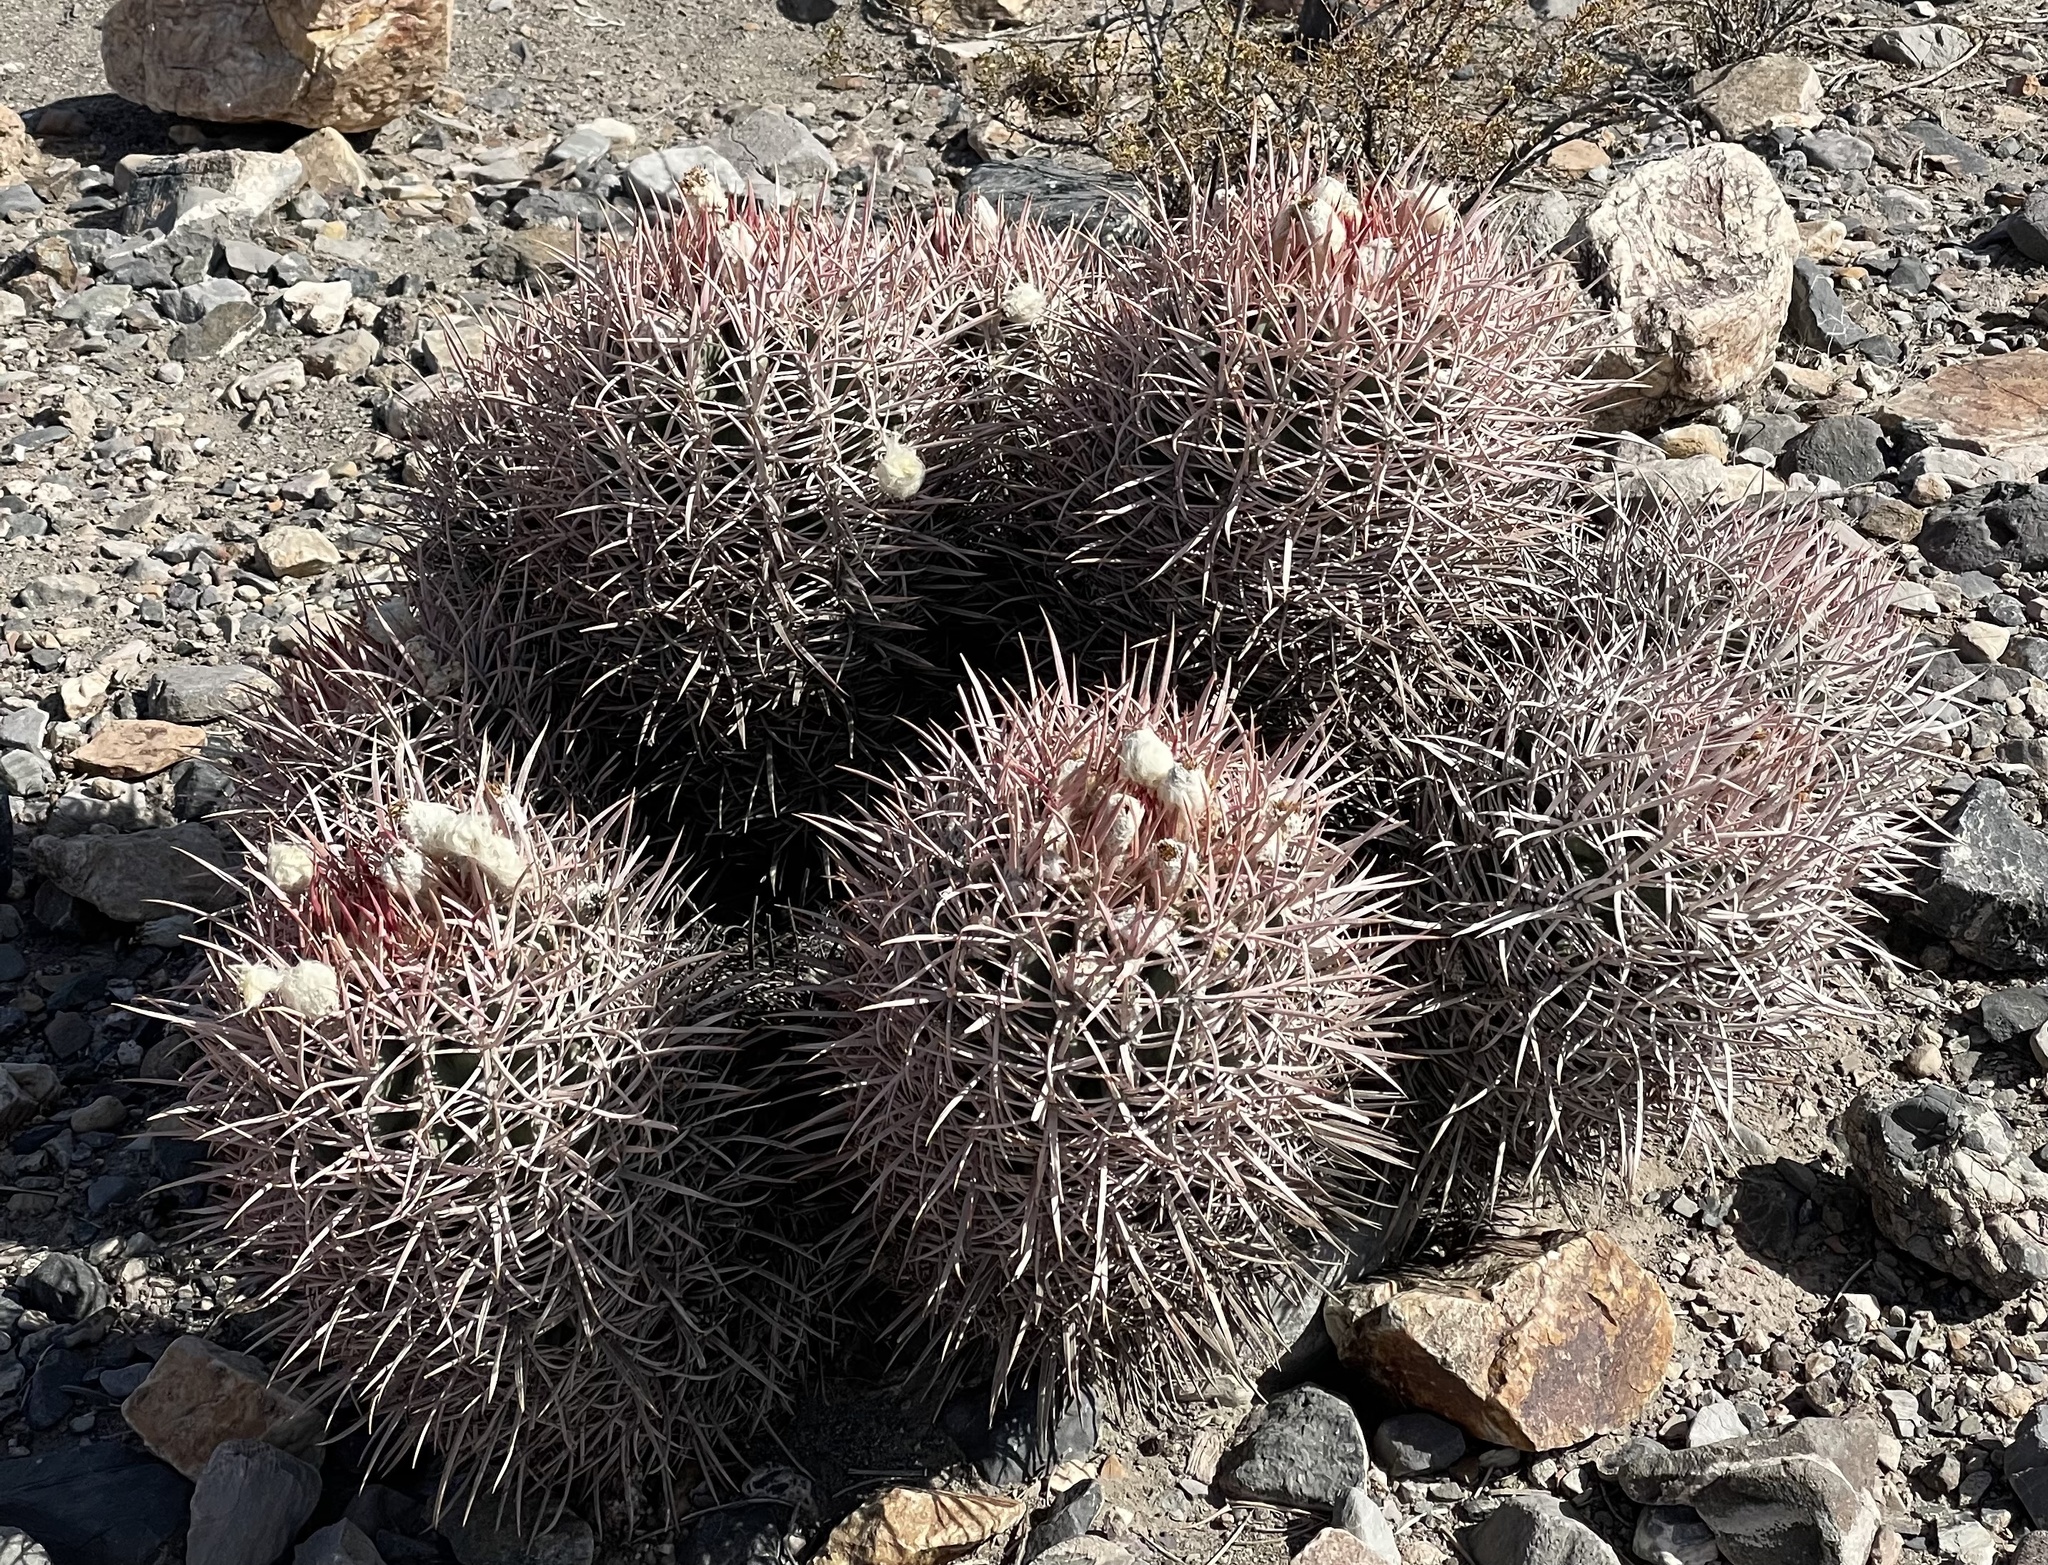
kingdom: Plantae
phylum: Tracheophyta
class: Magnoliopsida
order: Caryophyllales
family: Cactaceae
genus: Echinocactus
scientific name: Echinocactus polycephalus
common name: Cottontop cactus
